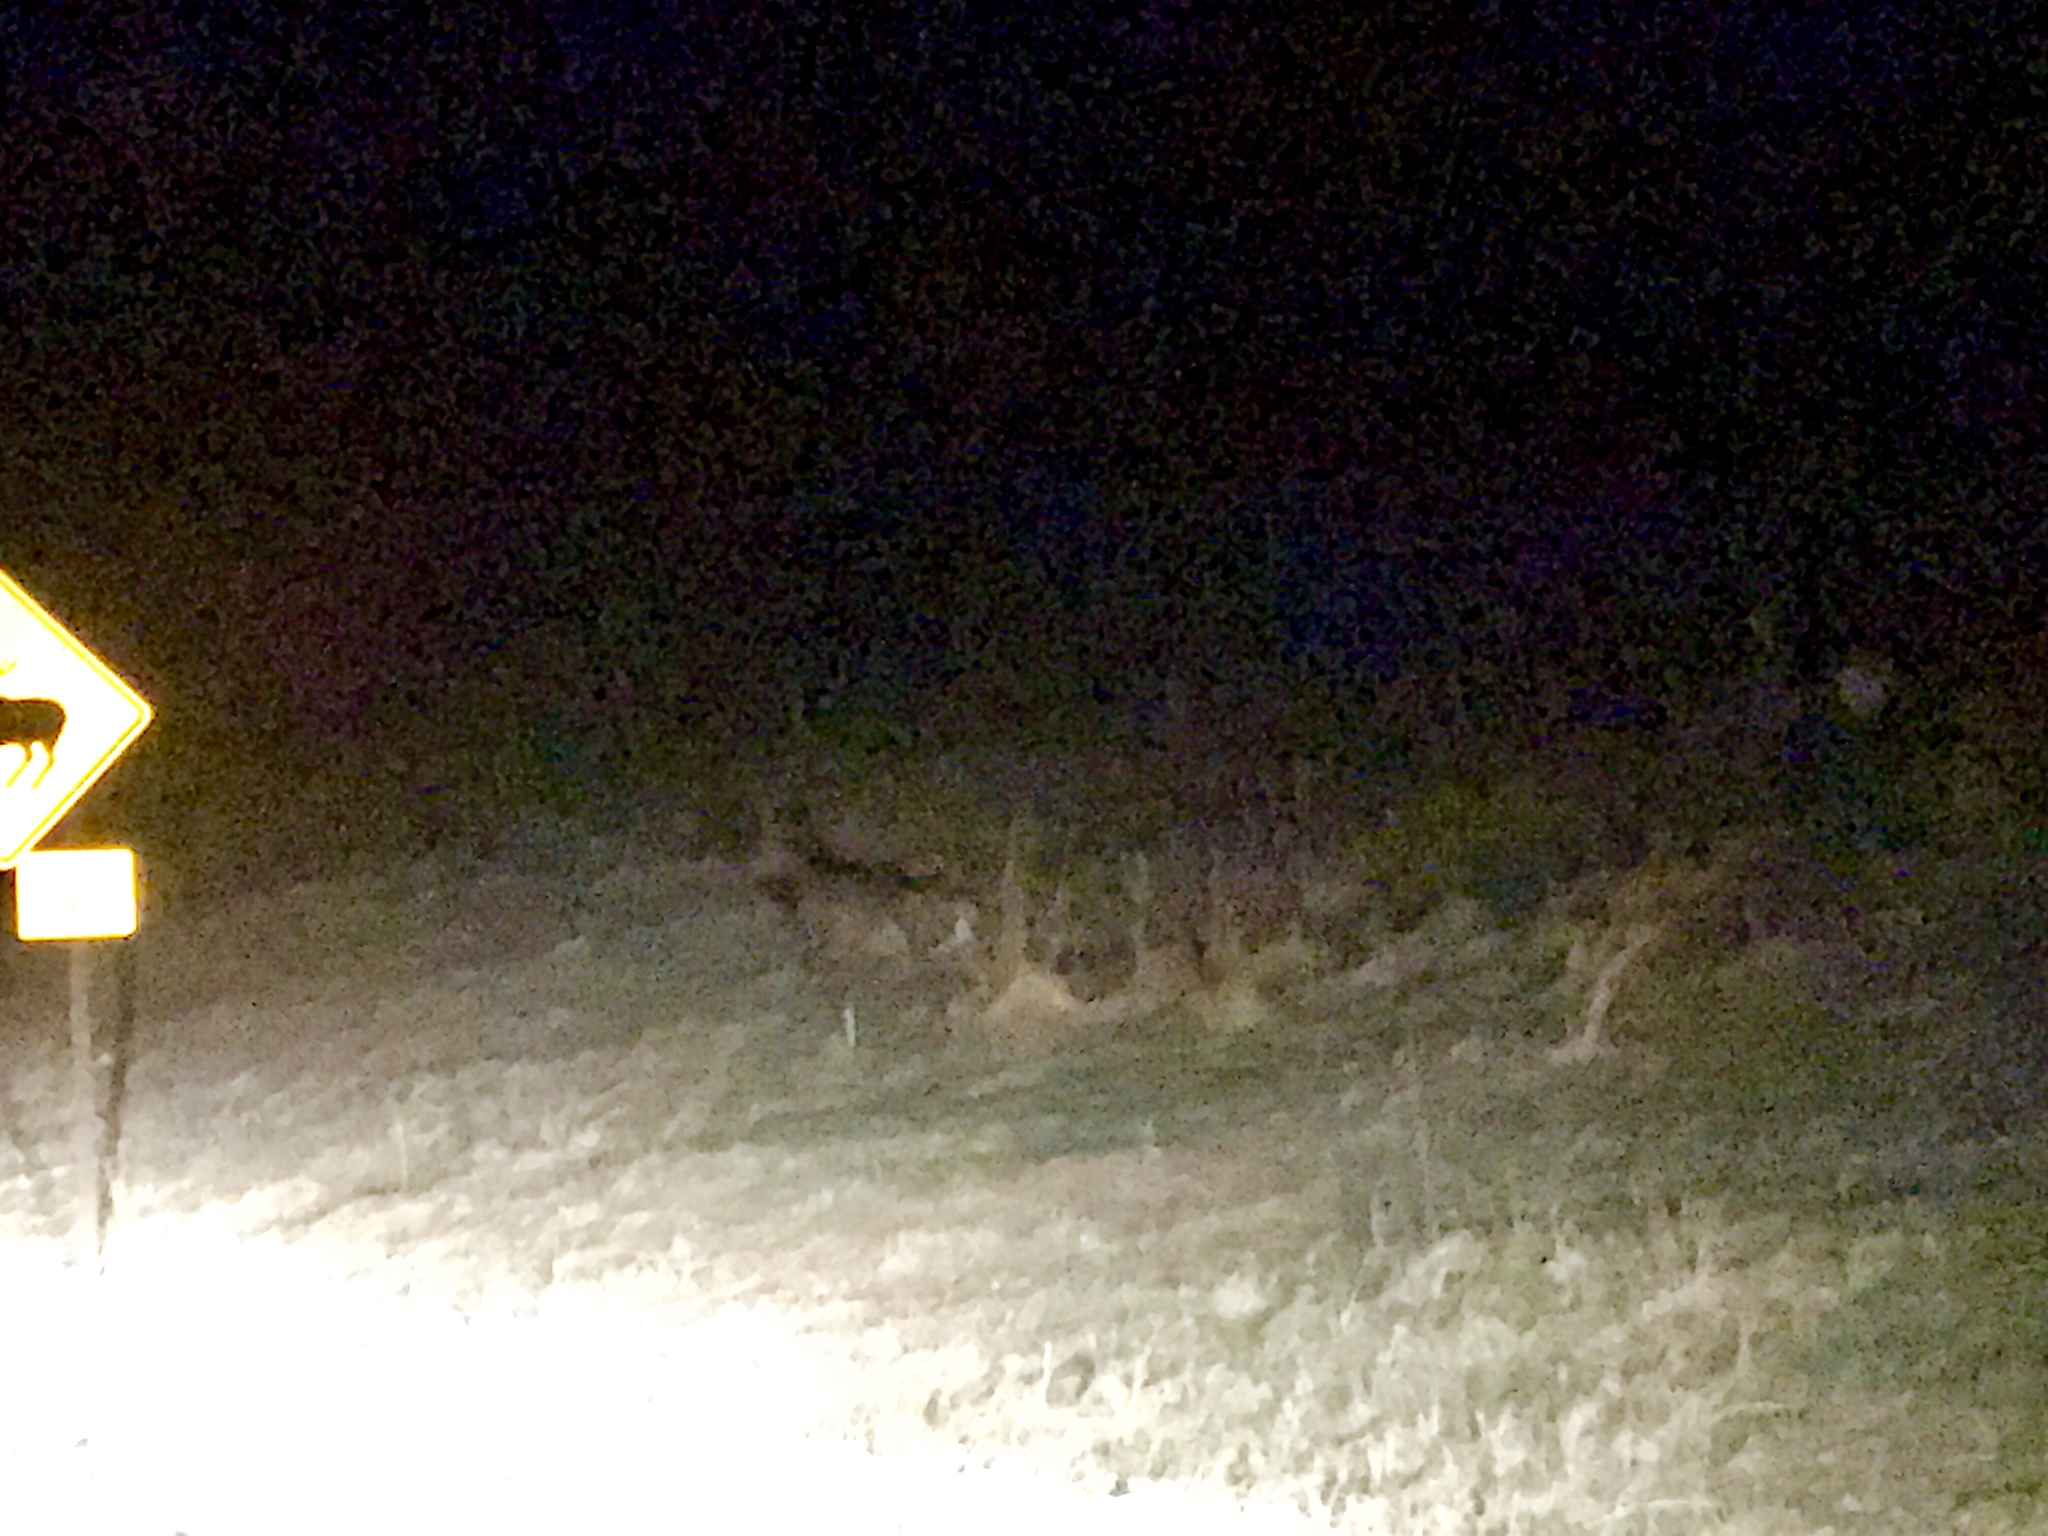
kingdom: Animalia
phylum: Chordata
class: Mammalia
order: Artiodactyla
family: Cervidae
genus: Cervus
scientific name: Cervus elaphus
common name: Red deer
